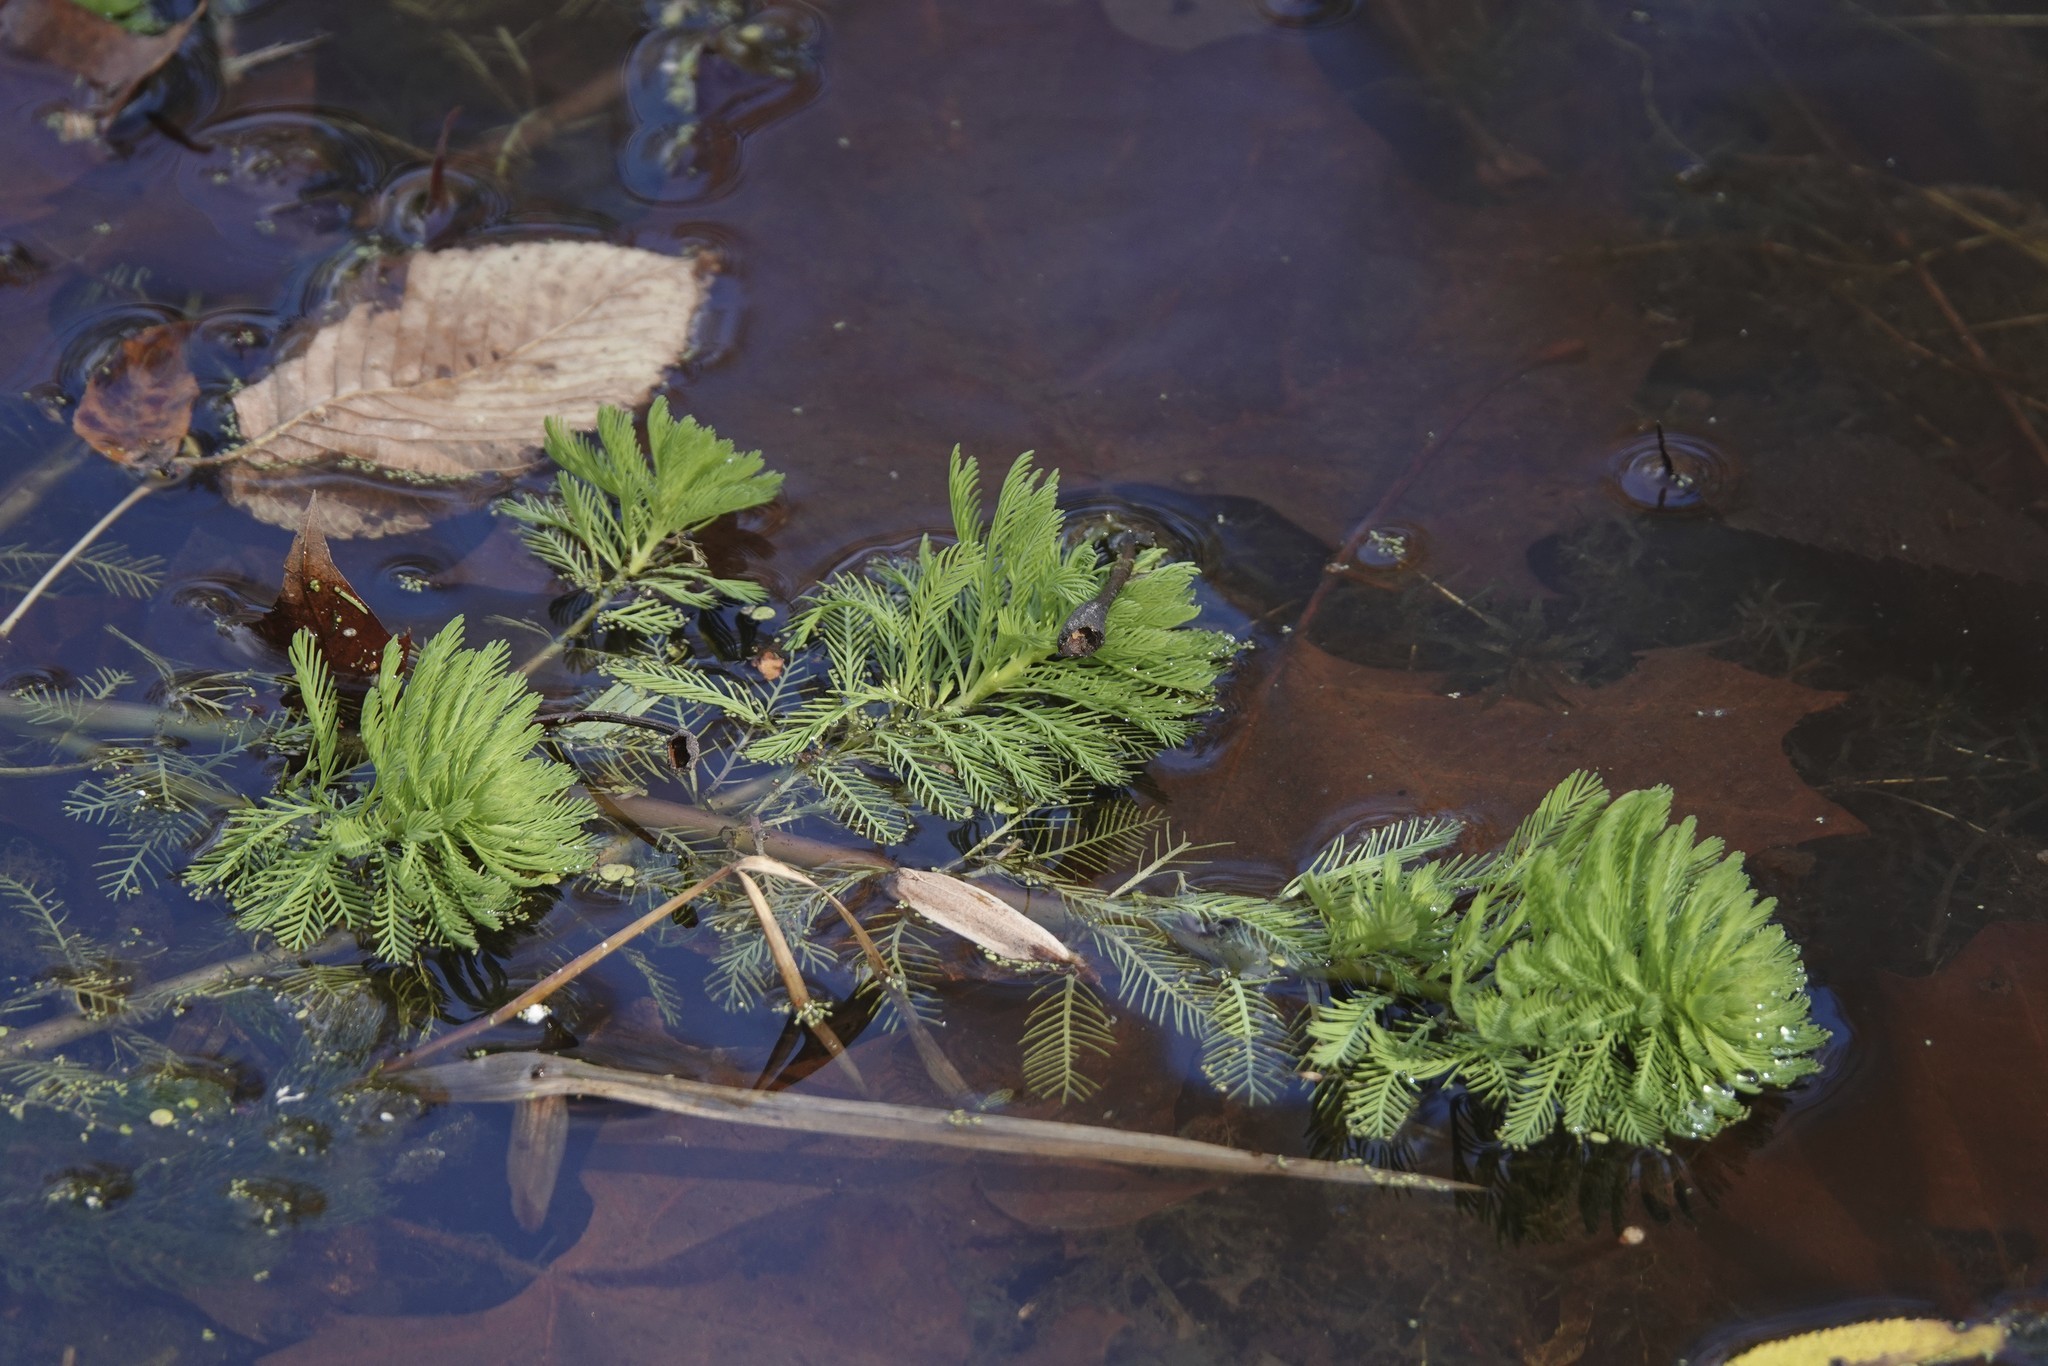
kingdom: Plantae
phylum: Tracheophyta
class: Magnoliopsida
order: Saxifragales
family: Haloragaceae
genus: Myriophyllum
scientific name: Myriophyllum aquaticum
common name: Parrot's feather
